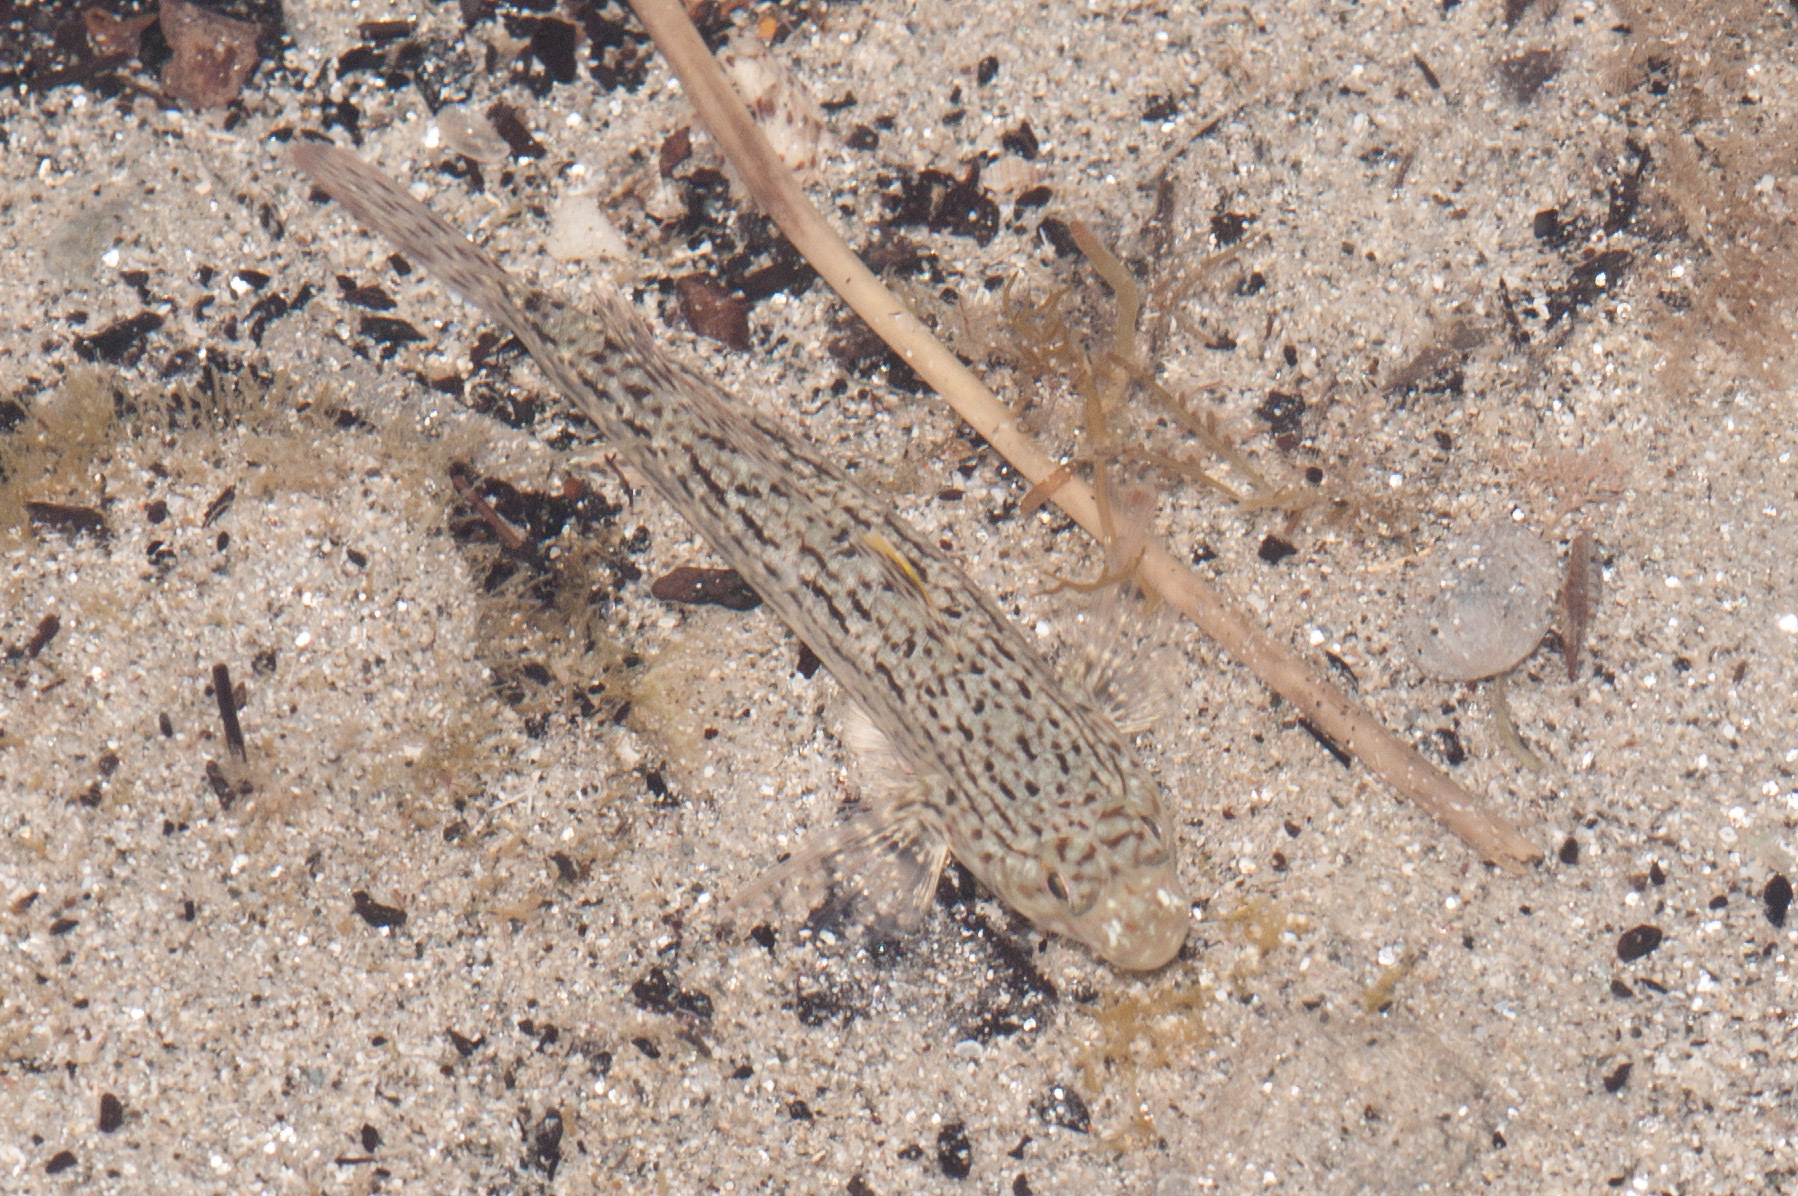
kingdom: Animalia
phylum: Chordata
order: Perciformes
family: Gobiidae
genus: Istigobius
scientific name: Istigobius ornatus
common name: Ornate goby
